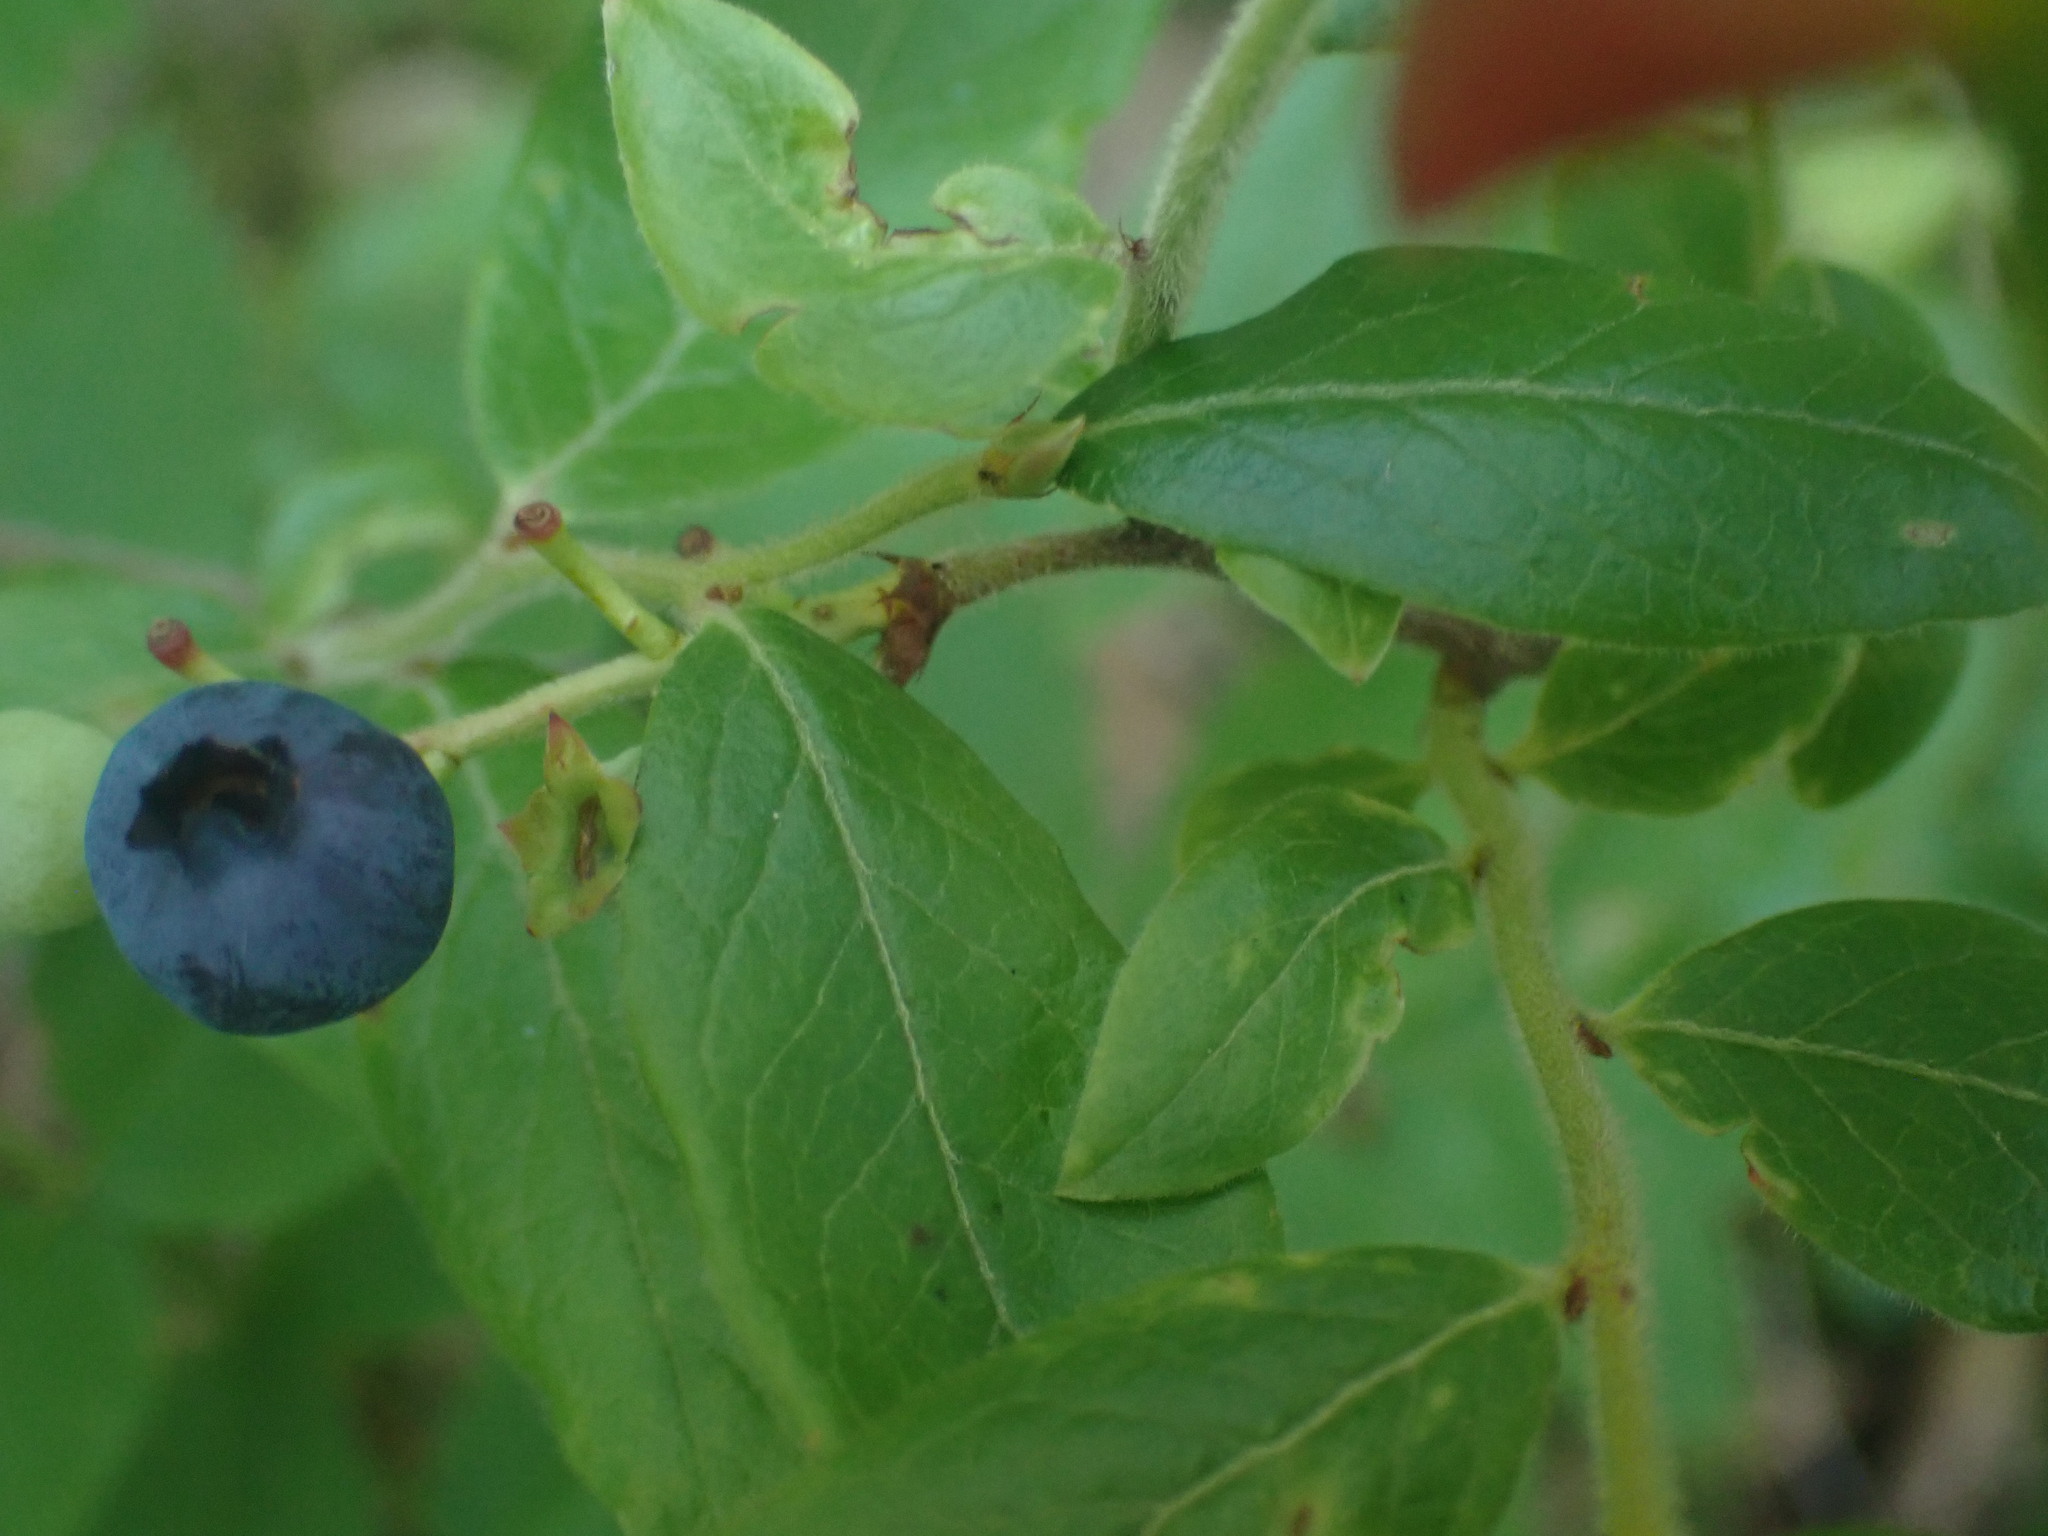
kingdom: Plantae
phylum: Tracheophyta
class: Magnoliopsida
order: Ericales
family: Ericaceae
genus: Vaccinium
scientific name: Vaccinium myrtilloides
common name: Canada blueberry
